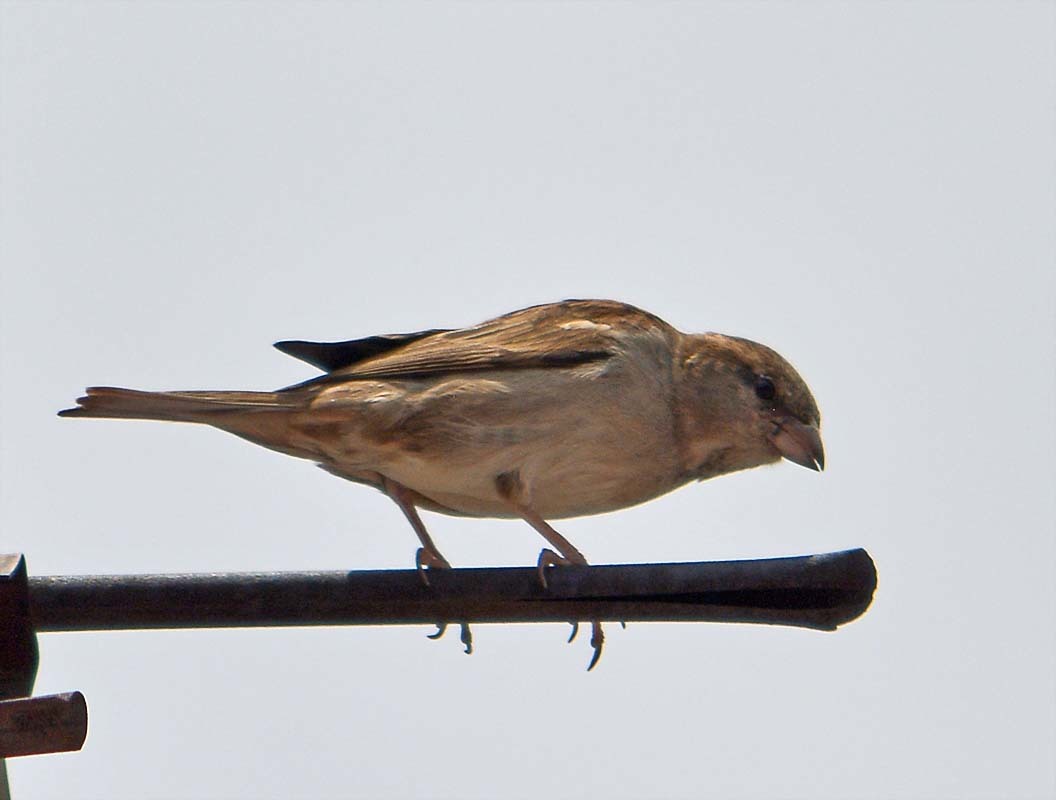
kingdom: Animalia
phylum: Chordata
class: Aves
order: Passeriformes
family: Passeridae
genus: Passer
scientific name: Passer domesticus
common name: House sparrow
